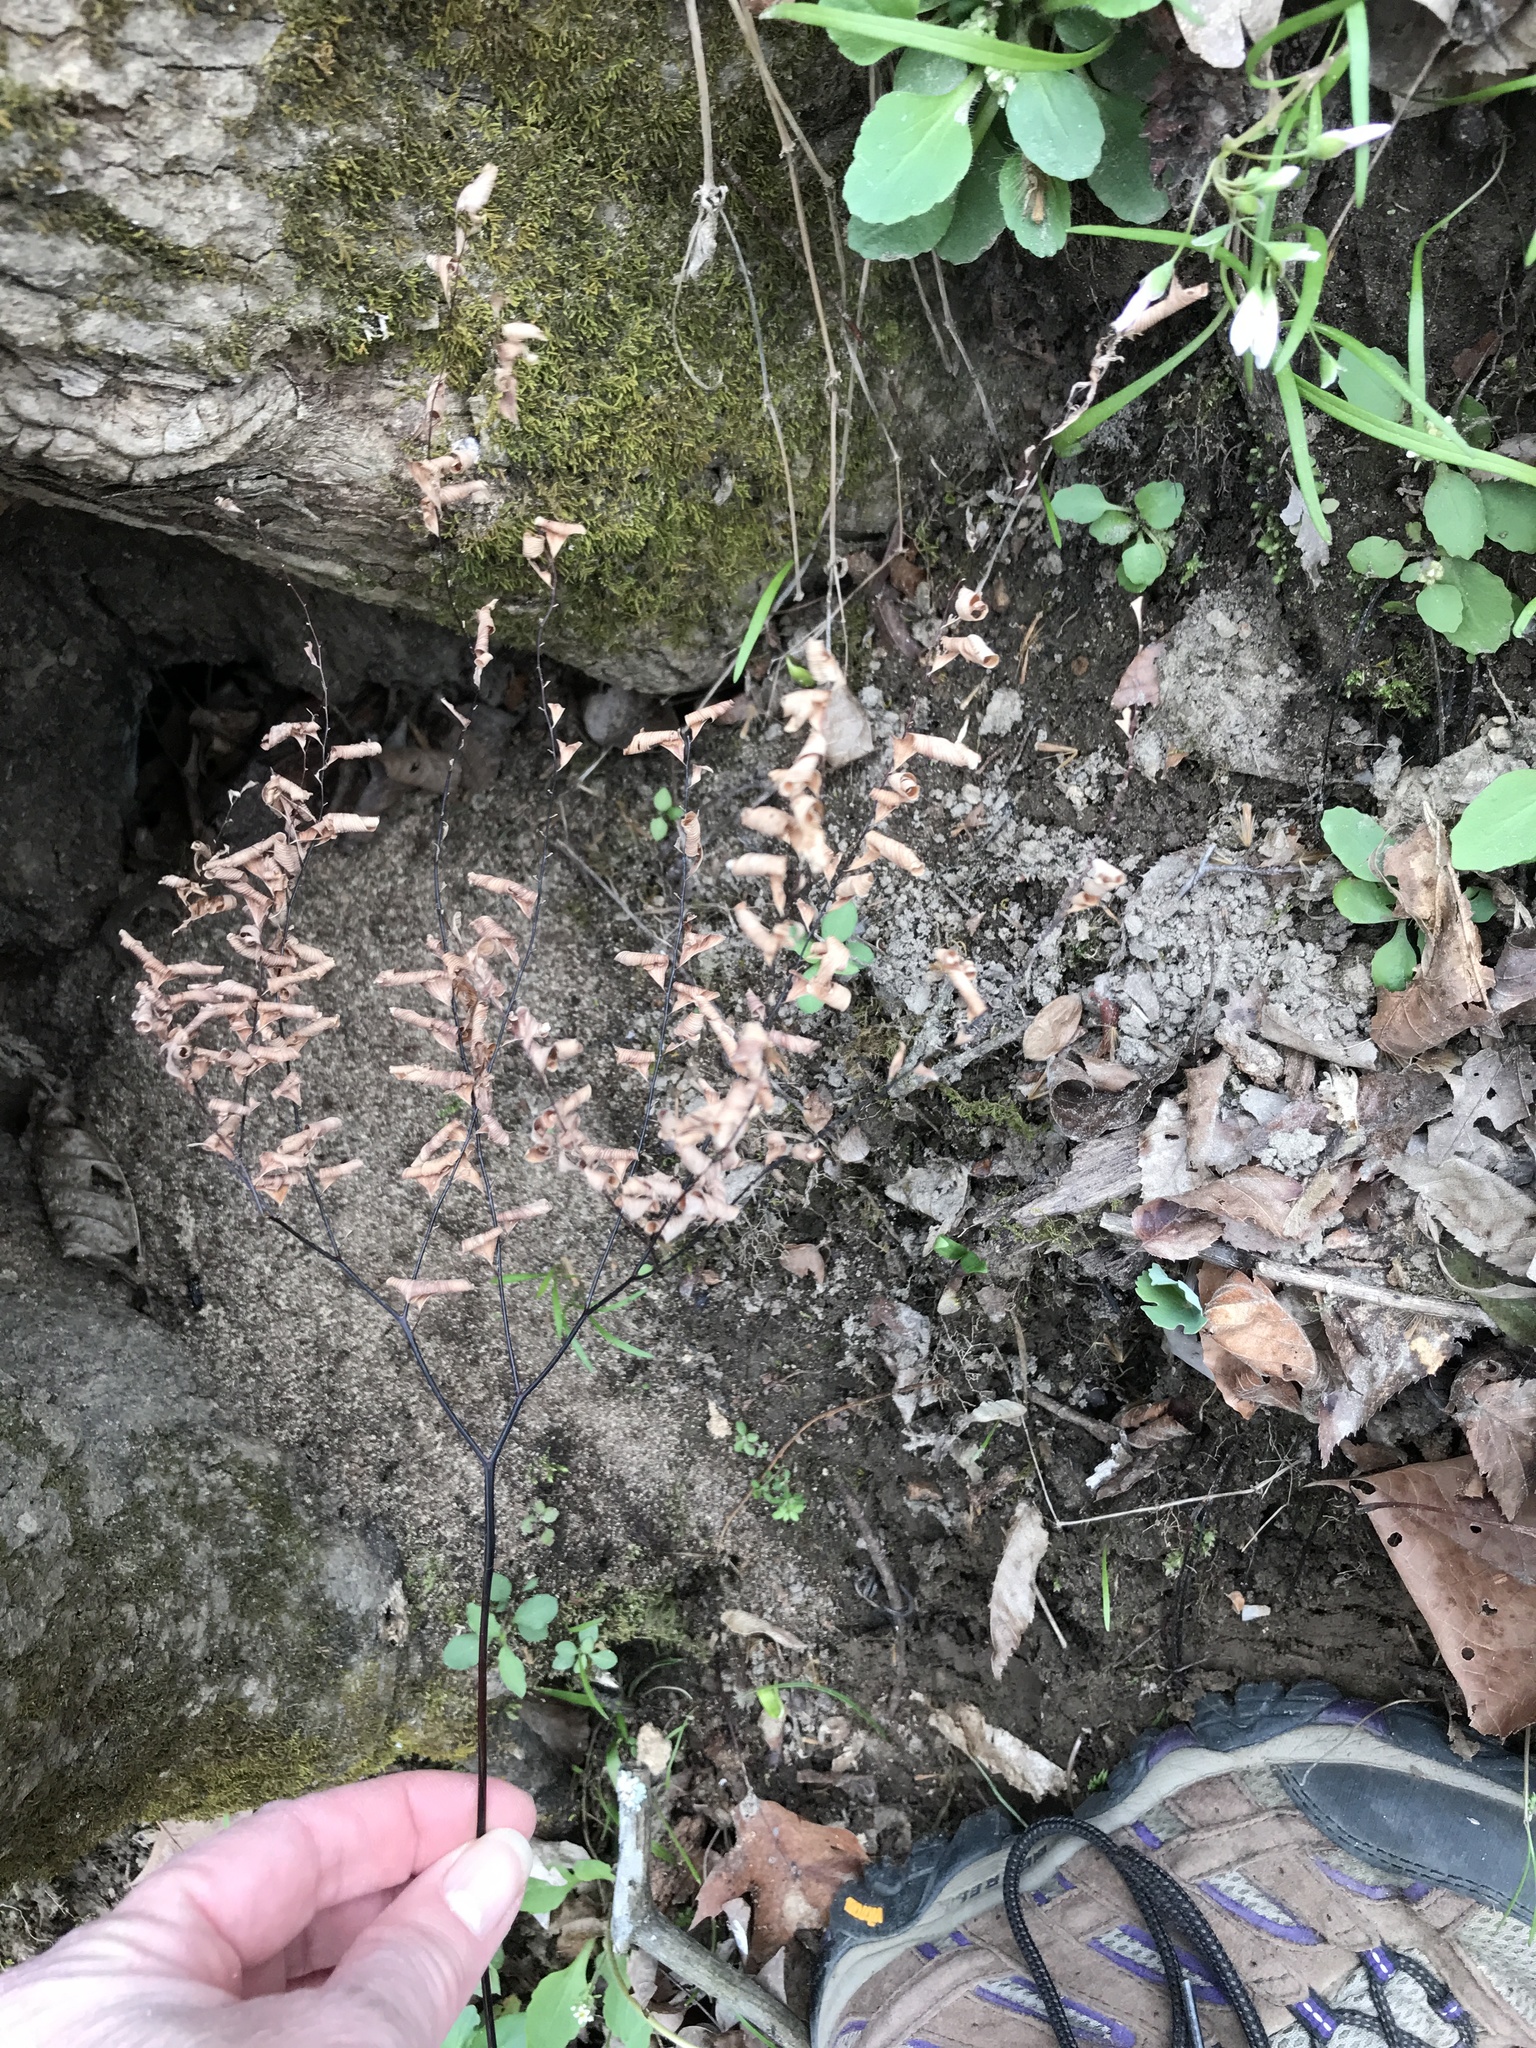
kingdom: Plantae
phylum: Tracheophyta
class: Polypodiopsida
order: Polypodiales
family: Pteridaceae
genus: Adiantum
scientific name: Adiantum pedatum
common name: Five-finger fern
